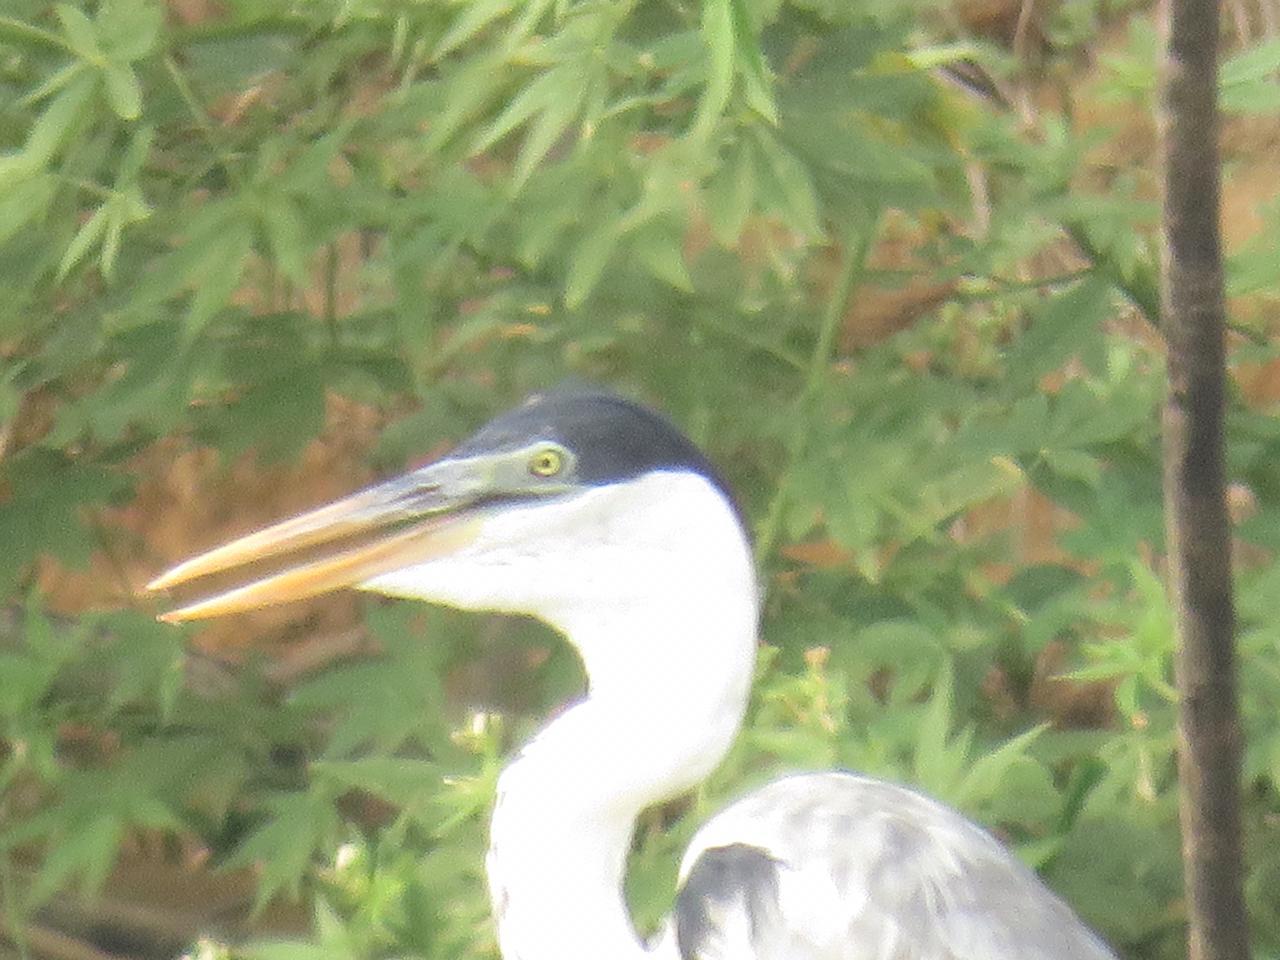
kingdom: Animalia
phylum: Chordata
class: Aves
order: Pelecaniformes
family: Ardeidae
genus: Ardea
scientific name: Ardea cocoi
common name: Cocoi heron
